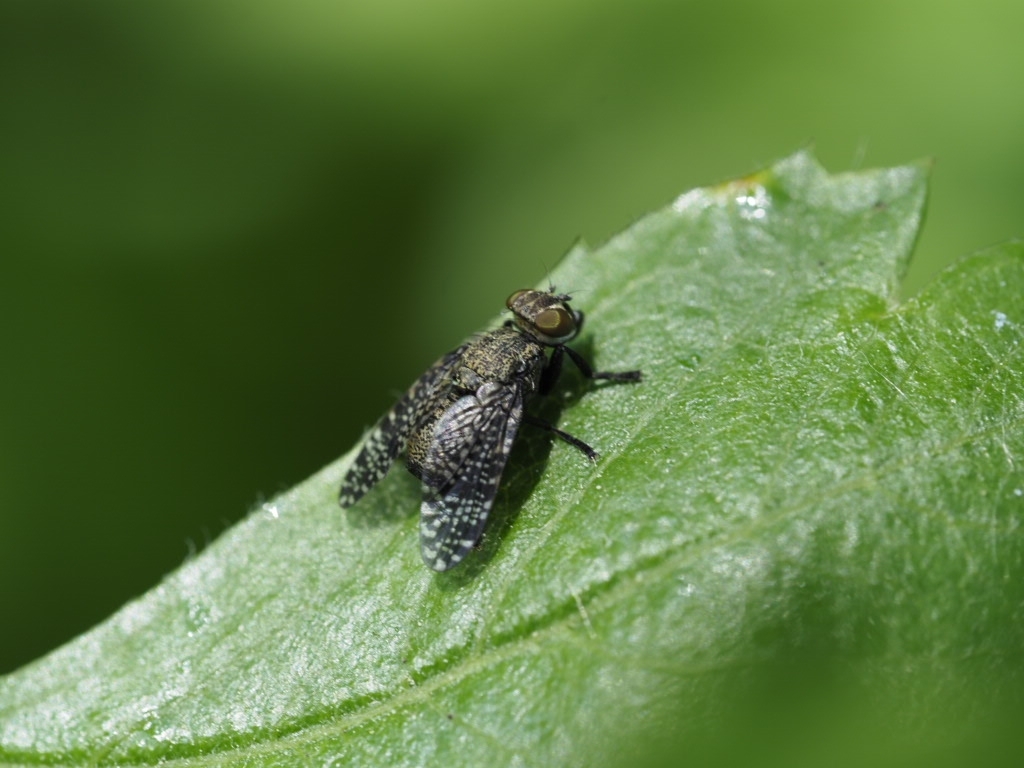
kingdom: Animalia
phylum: Arthropoda
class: Insecta
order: Diptera
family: Platystomatidae
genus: Platystoma
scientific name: Platystoma seminationis
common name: Fly
